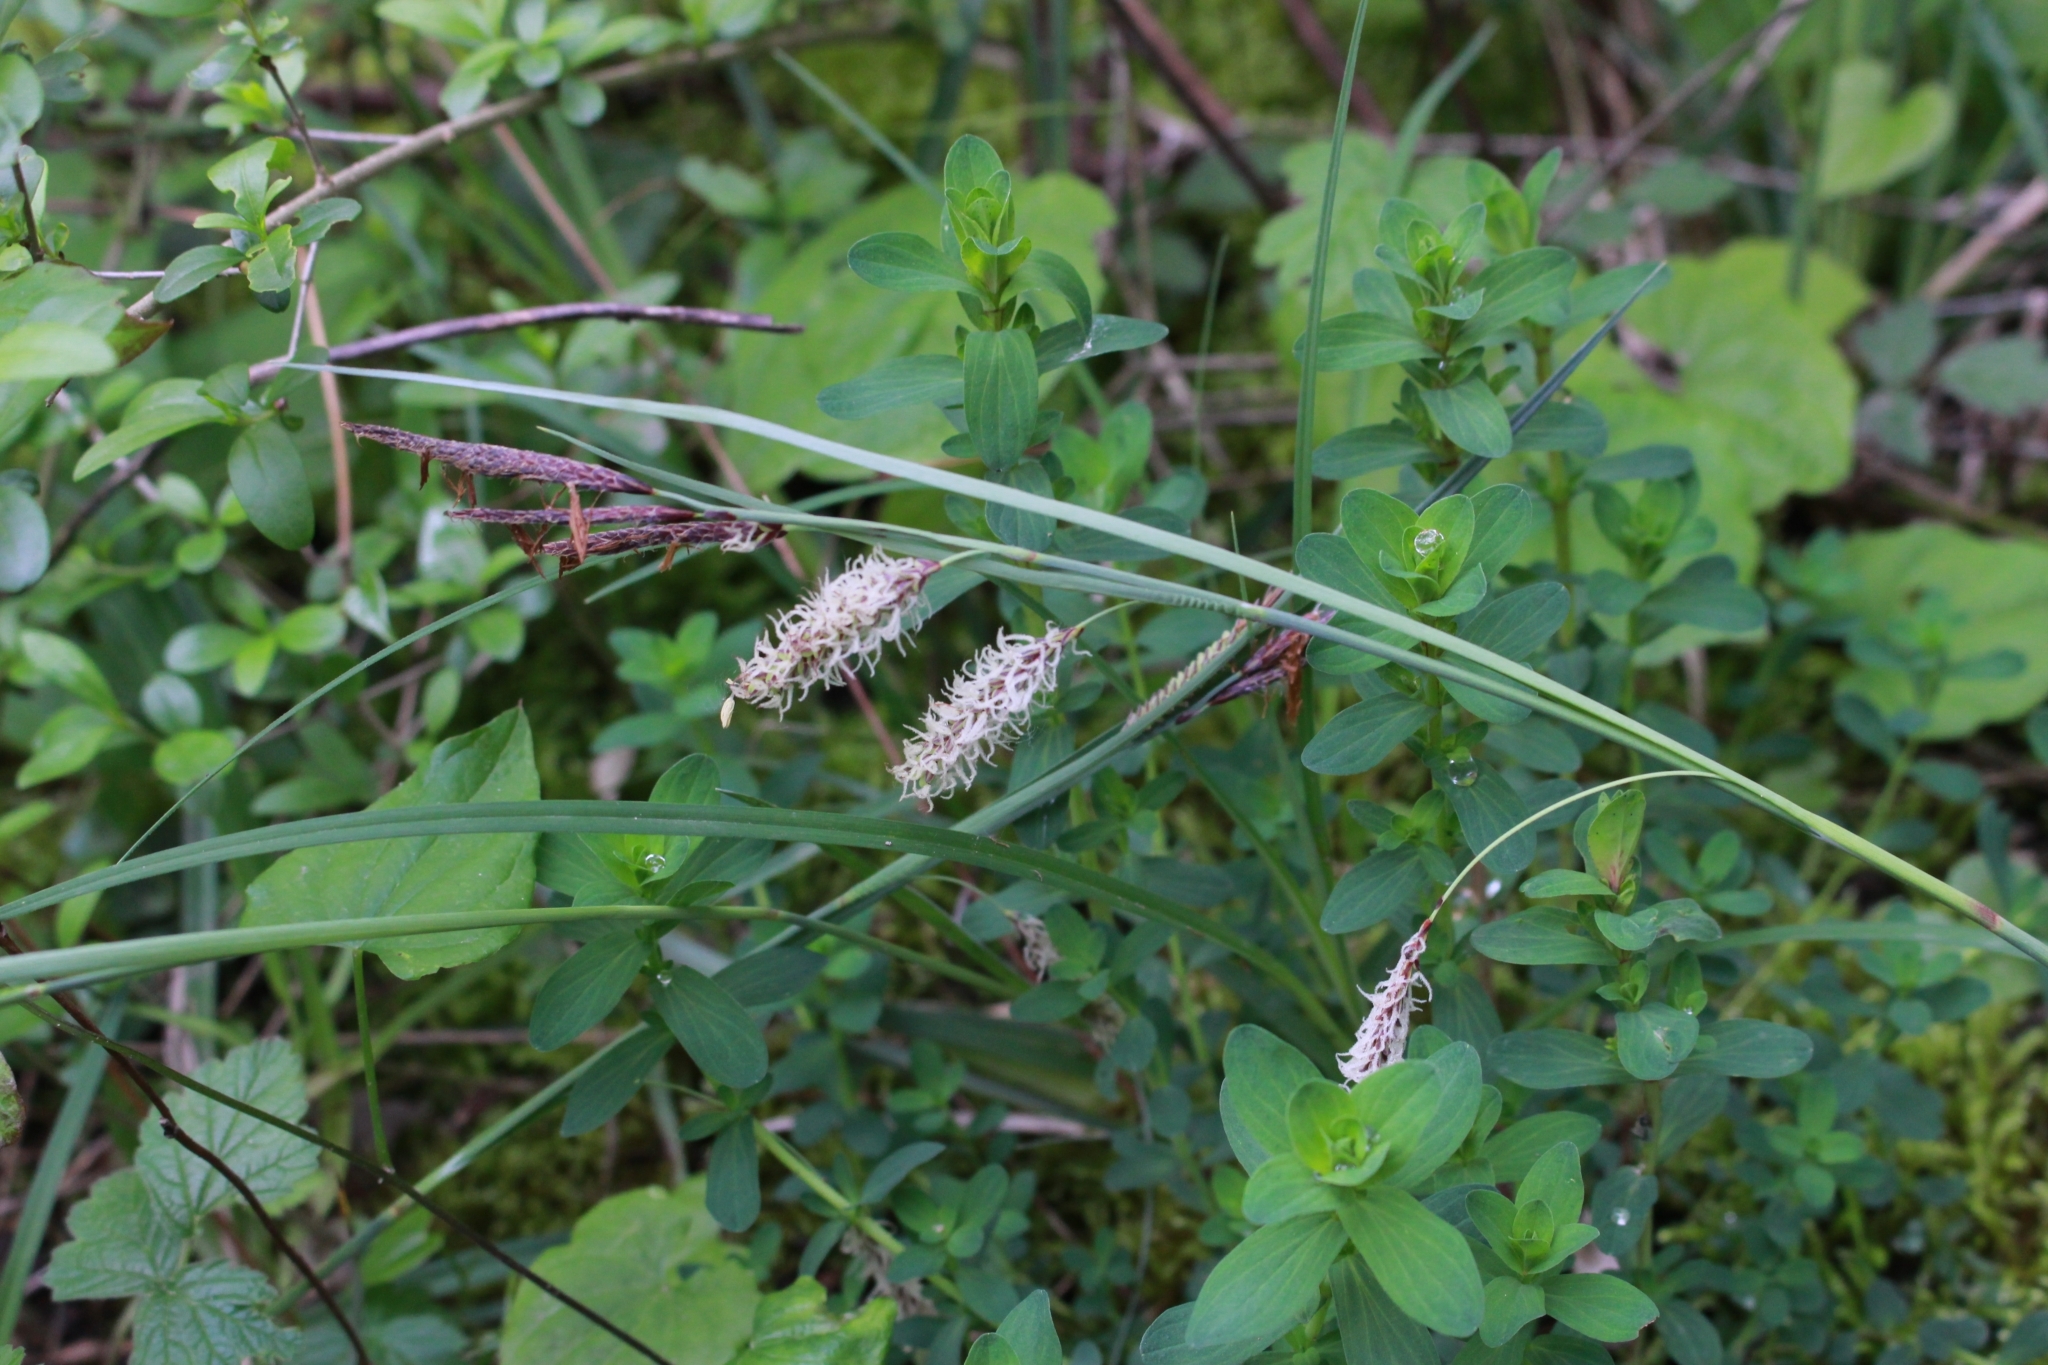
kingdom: Plantae
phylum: Tracheophyta
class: Liliopsida
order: Poales
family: Cyperaceae
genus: Carex
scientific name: Carex flacca
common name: Glaucous sedge
